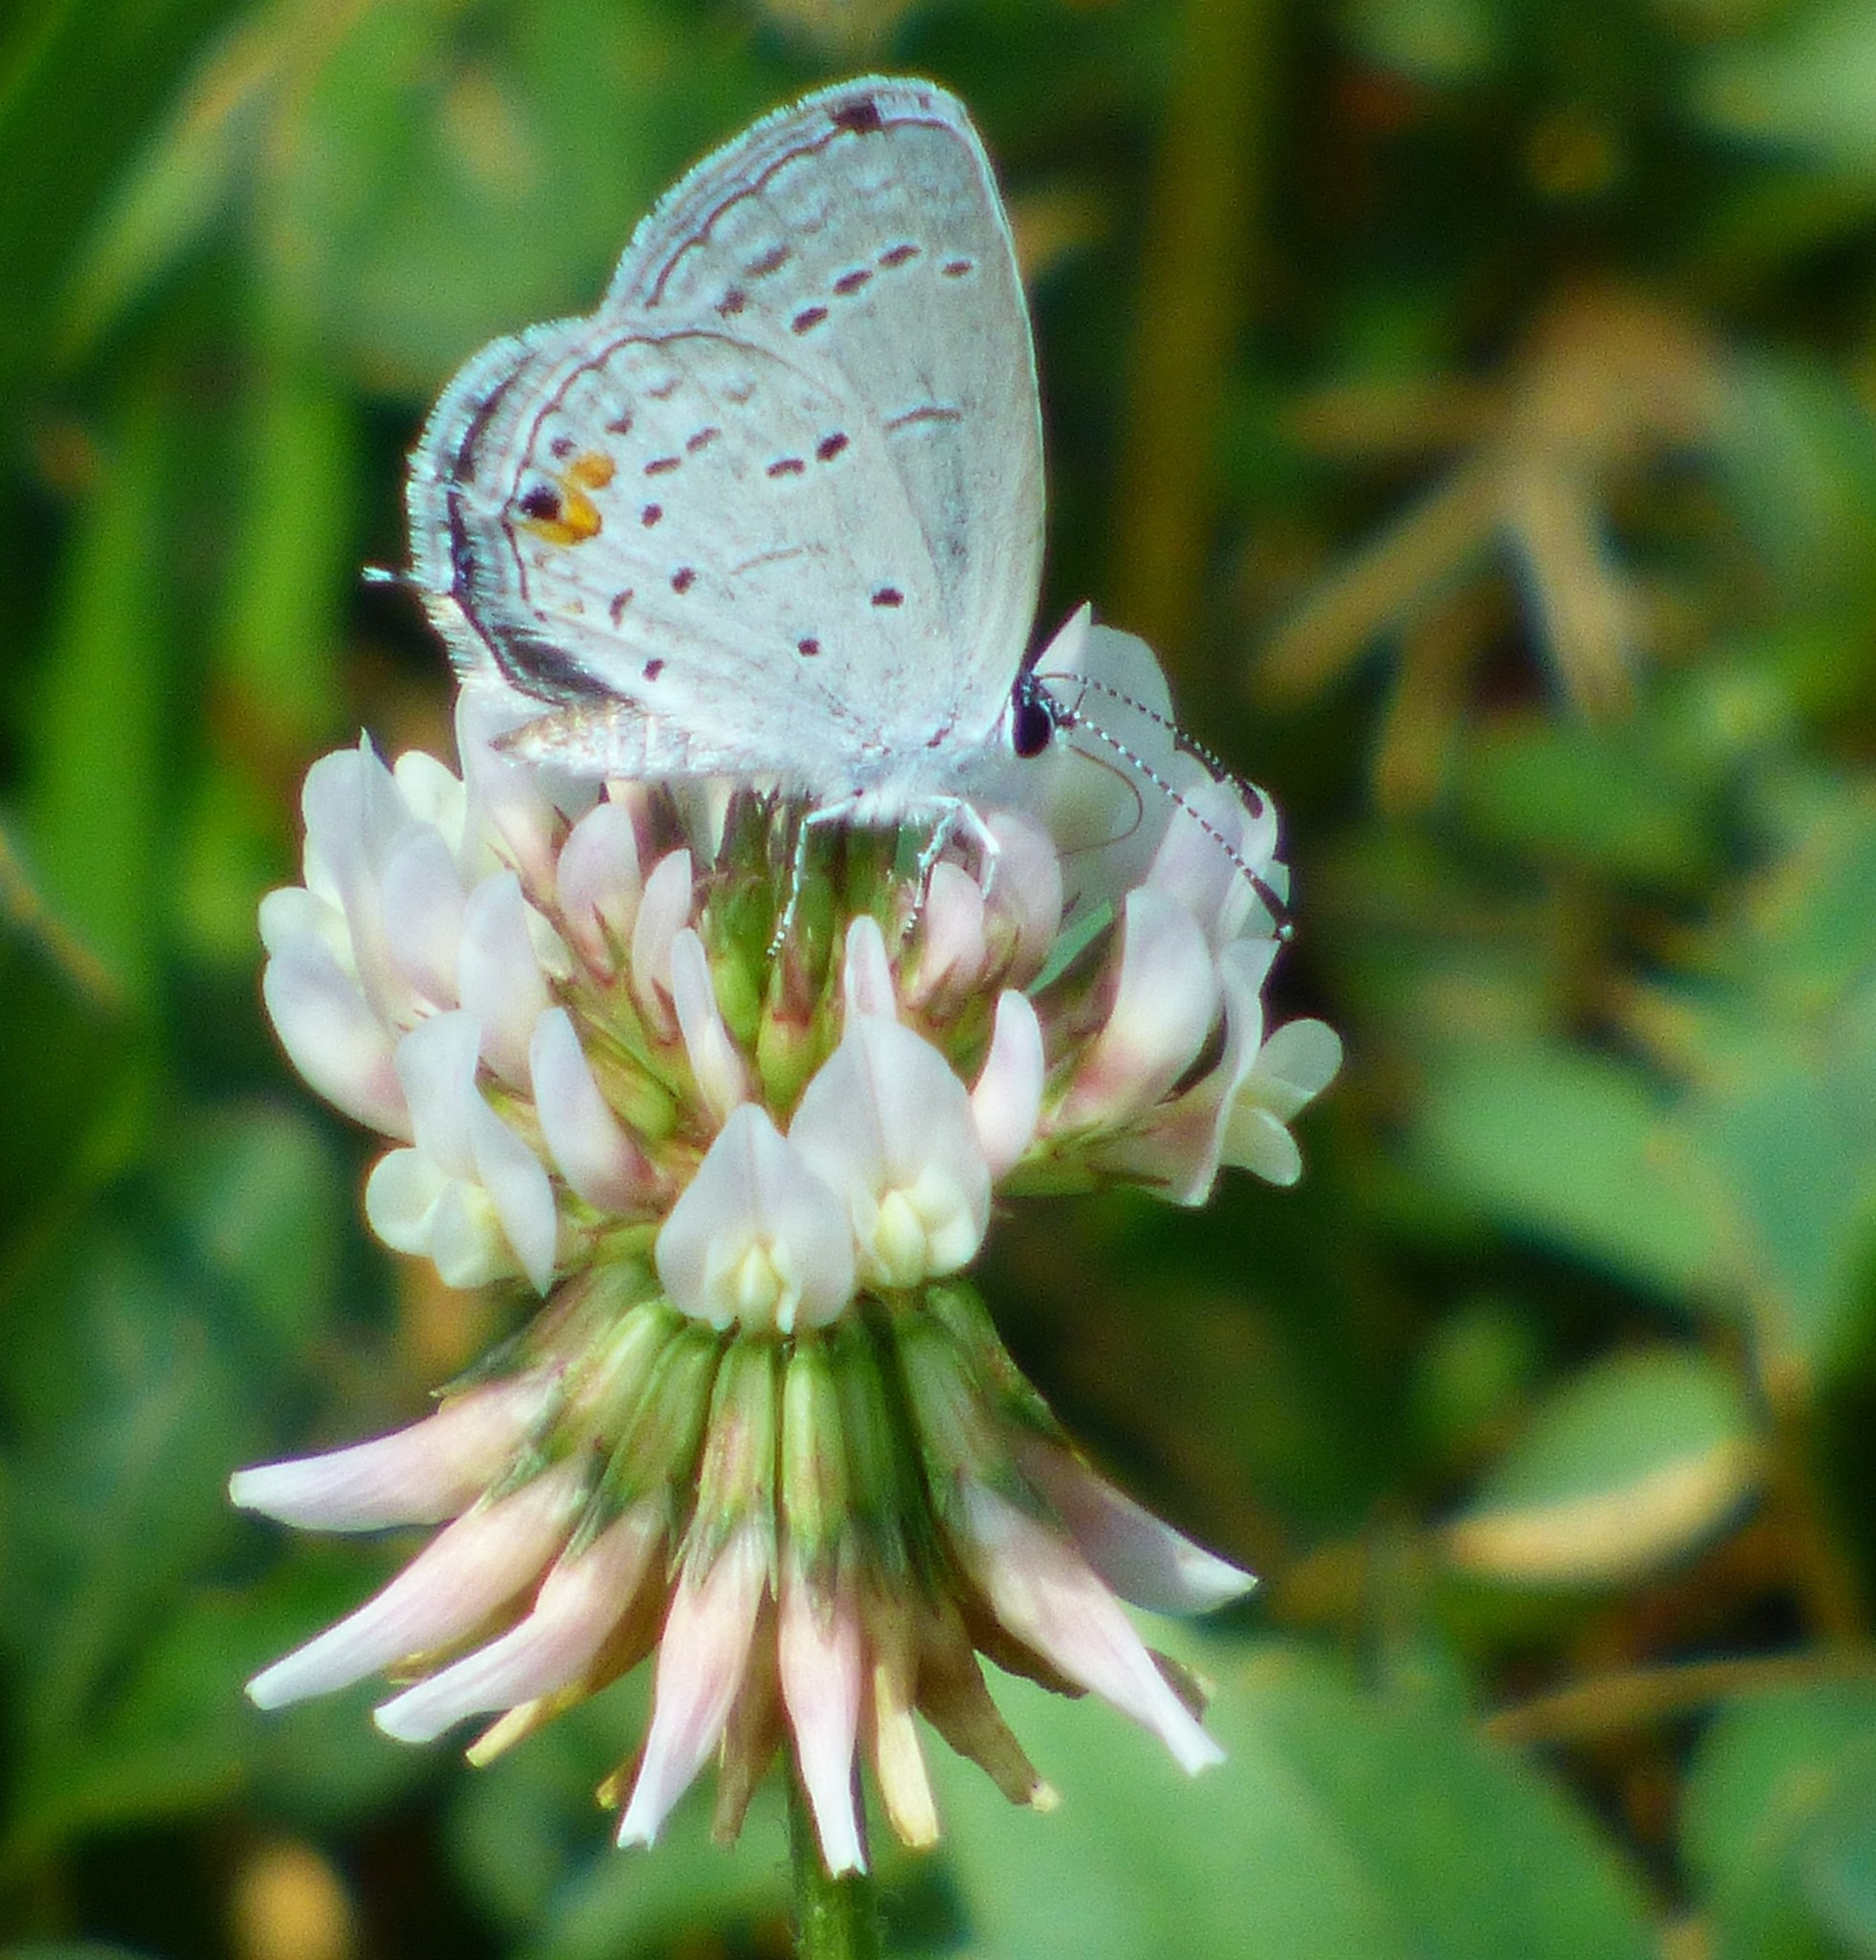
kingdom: Animalia
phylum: Arthropoda
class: Insecta
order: Lepidoptera
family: Lycaenidae
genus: Elkalyce
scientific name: Elkalyce comyntas
